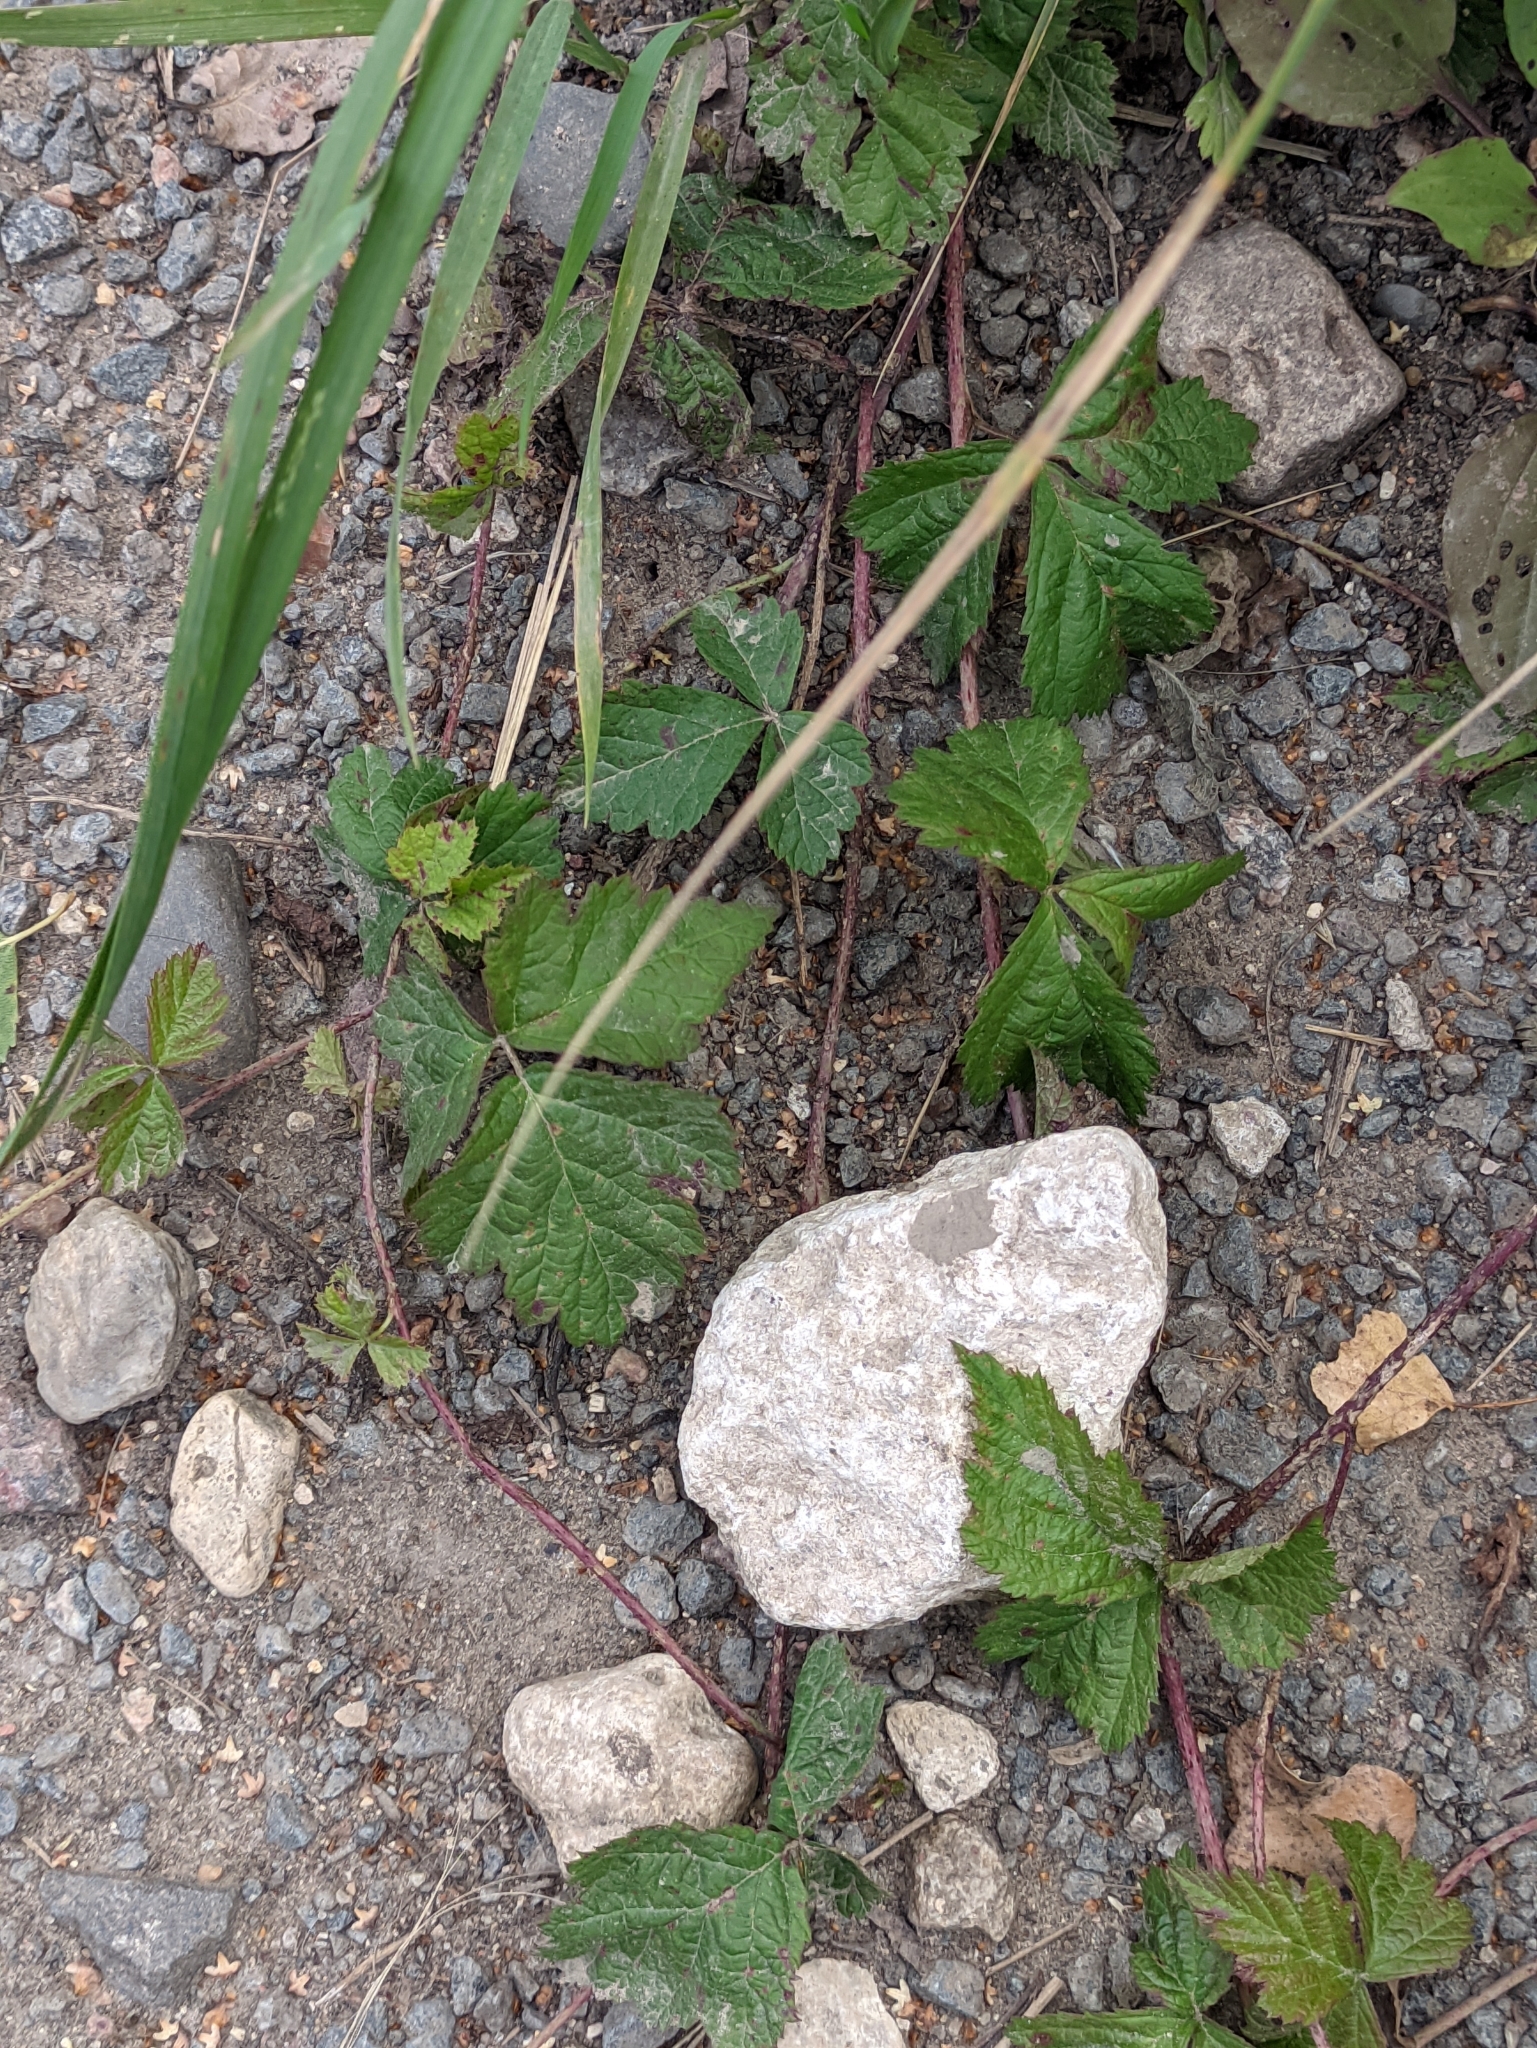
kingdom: Plantae
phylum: Tracheophyta
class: Magnoliopsida
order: Rosales
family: Rosaceae
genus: Rubus
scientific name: Rubus caesius
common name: Dewberry
